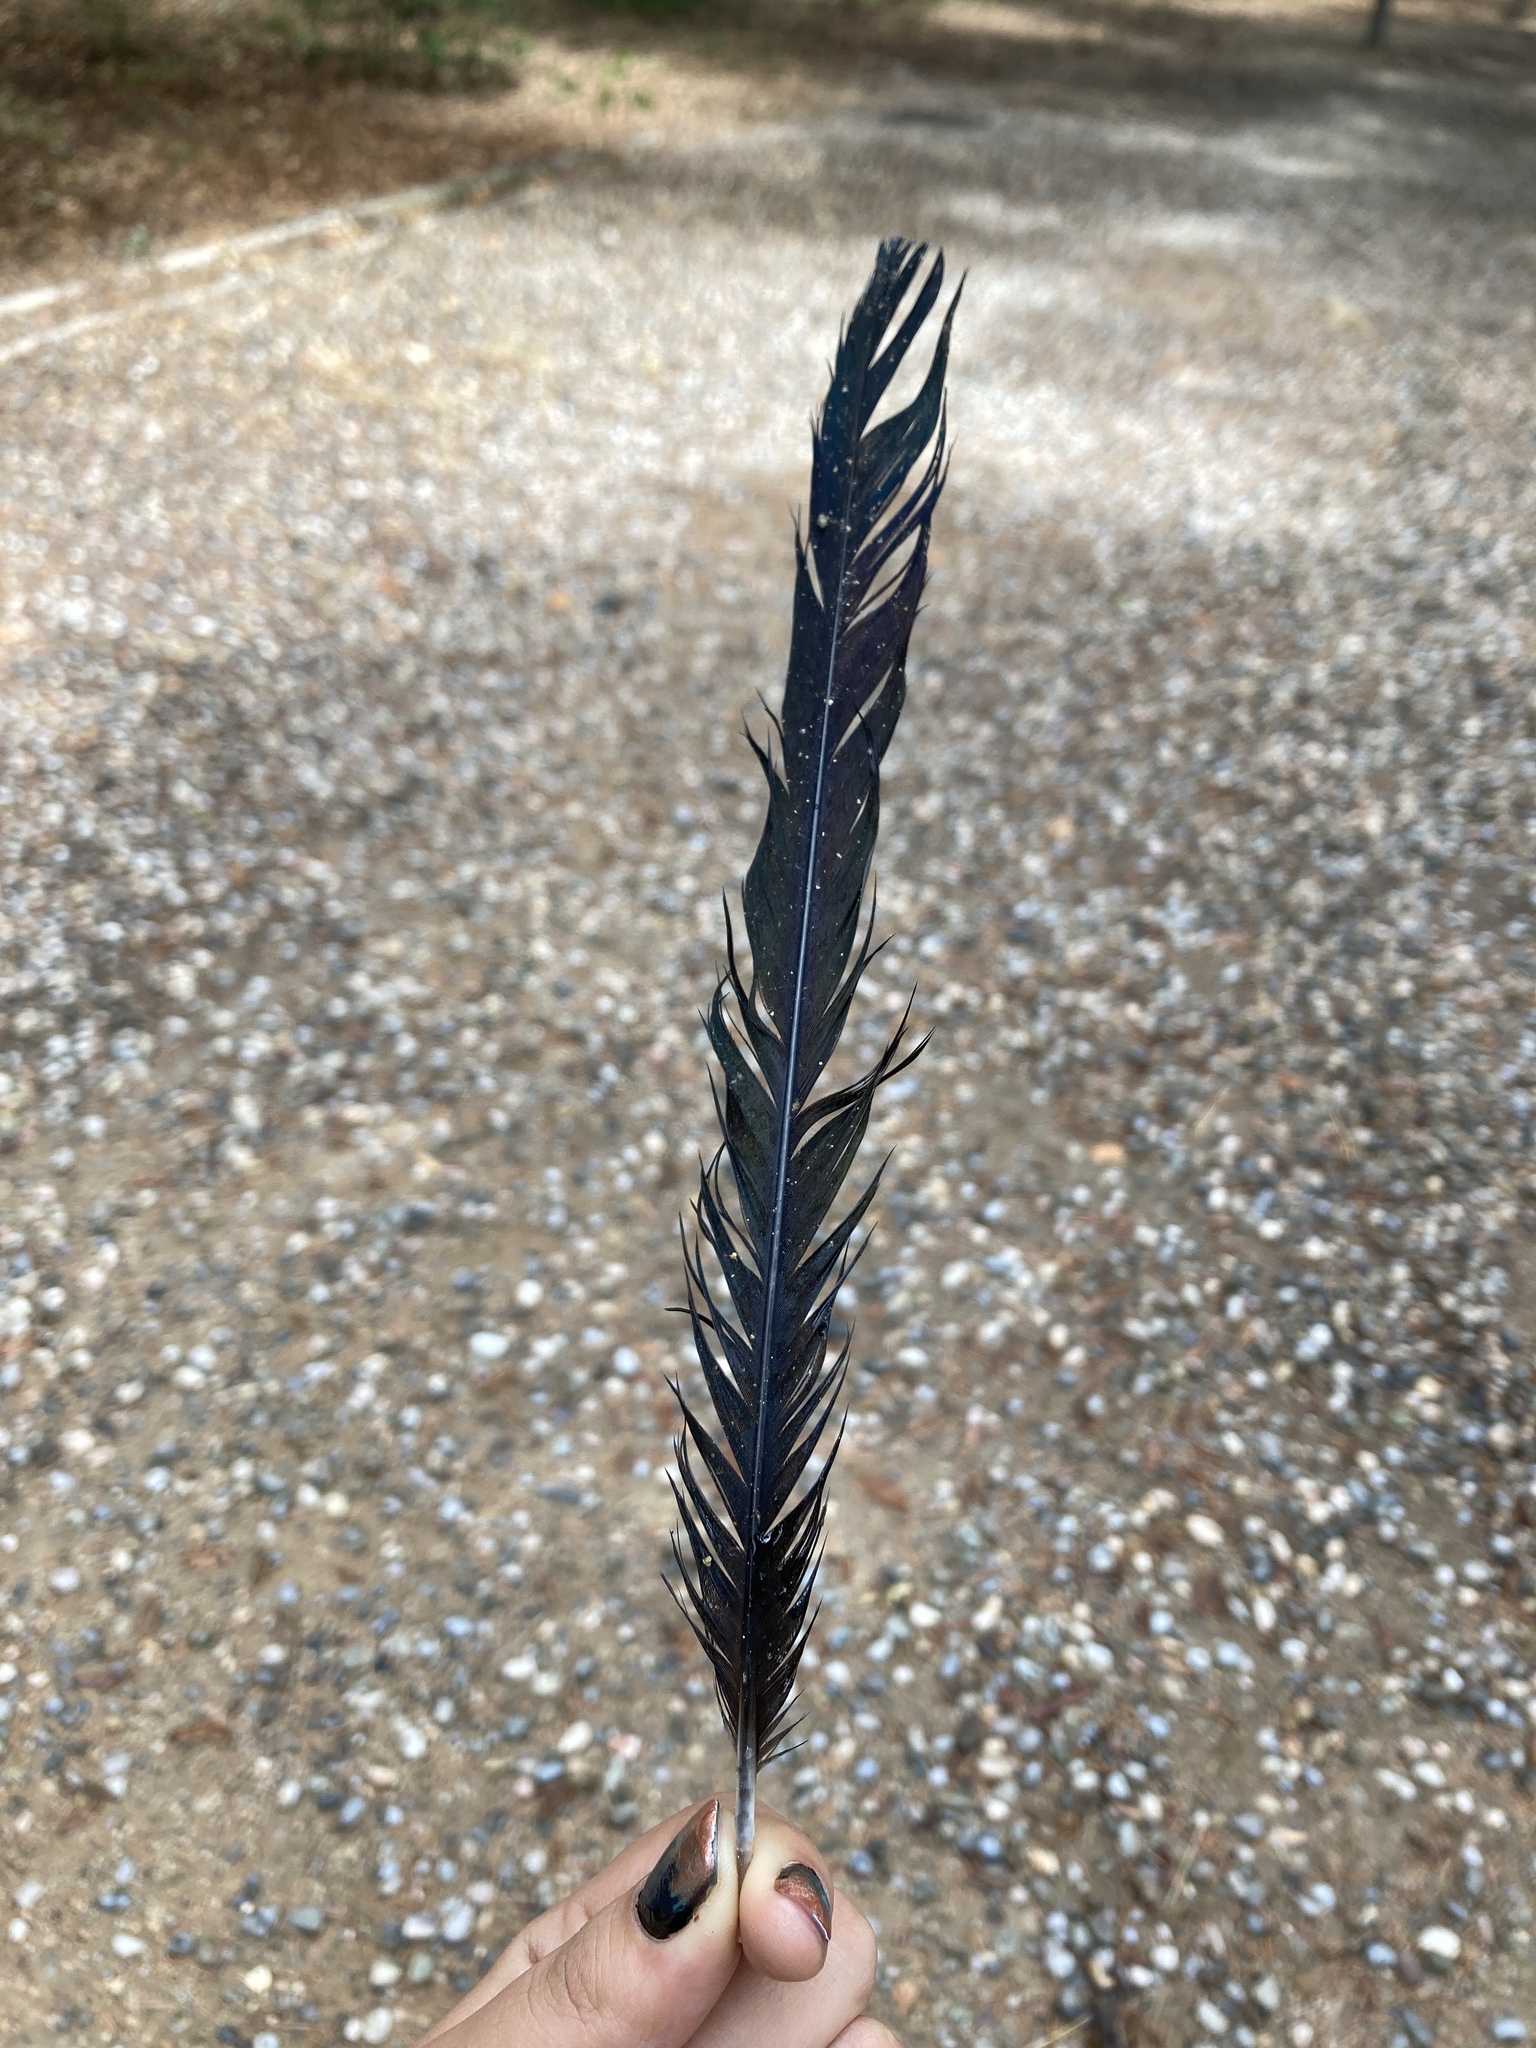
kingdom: Animalia
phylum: Chordata
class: Aves
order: Passeriformes
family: Corvidae
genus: Pica
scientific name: Pica pica
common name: Eurasian magpie
